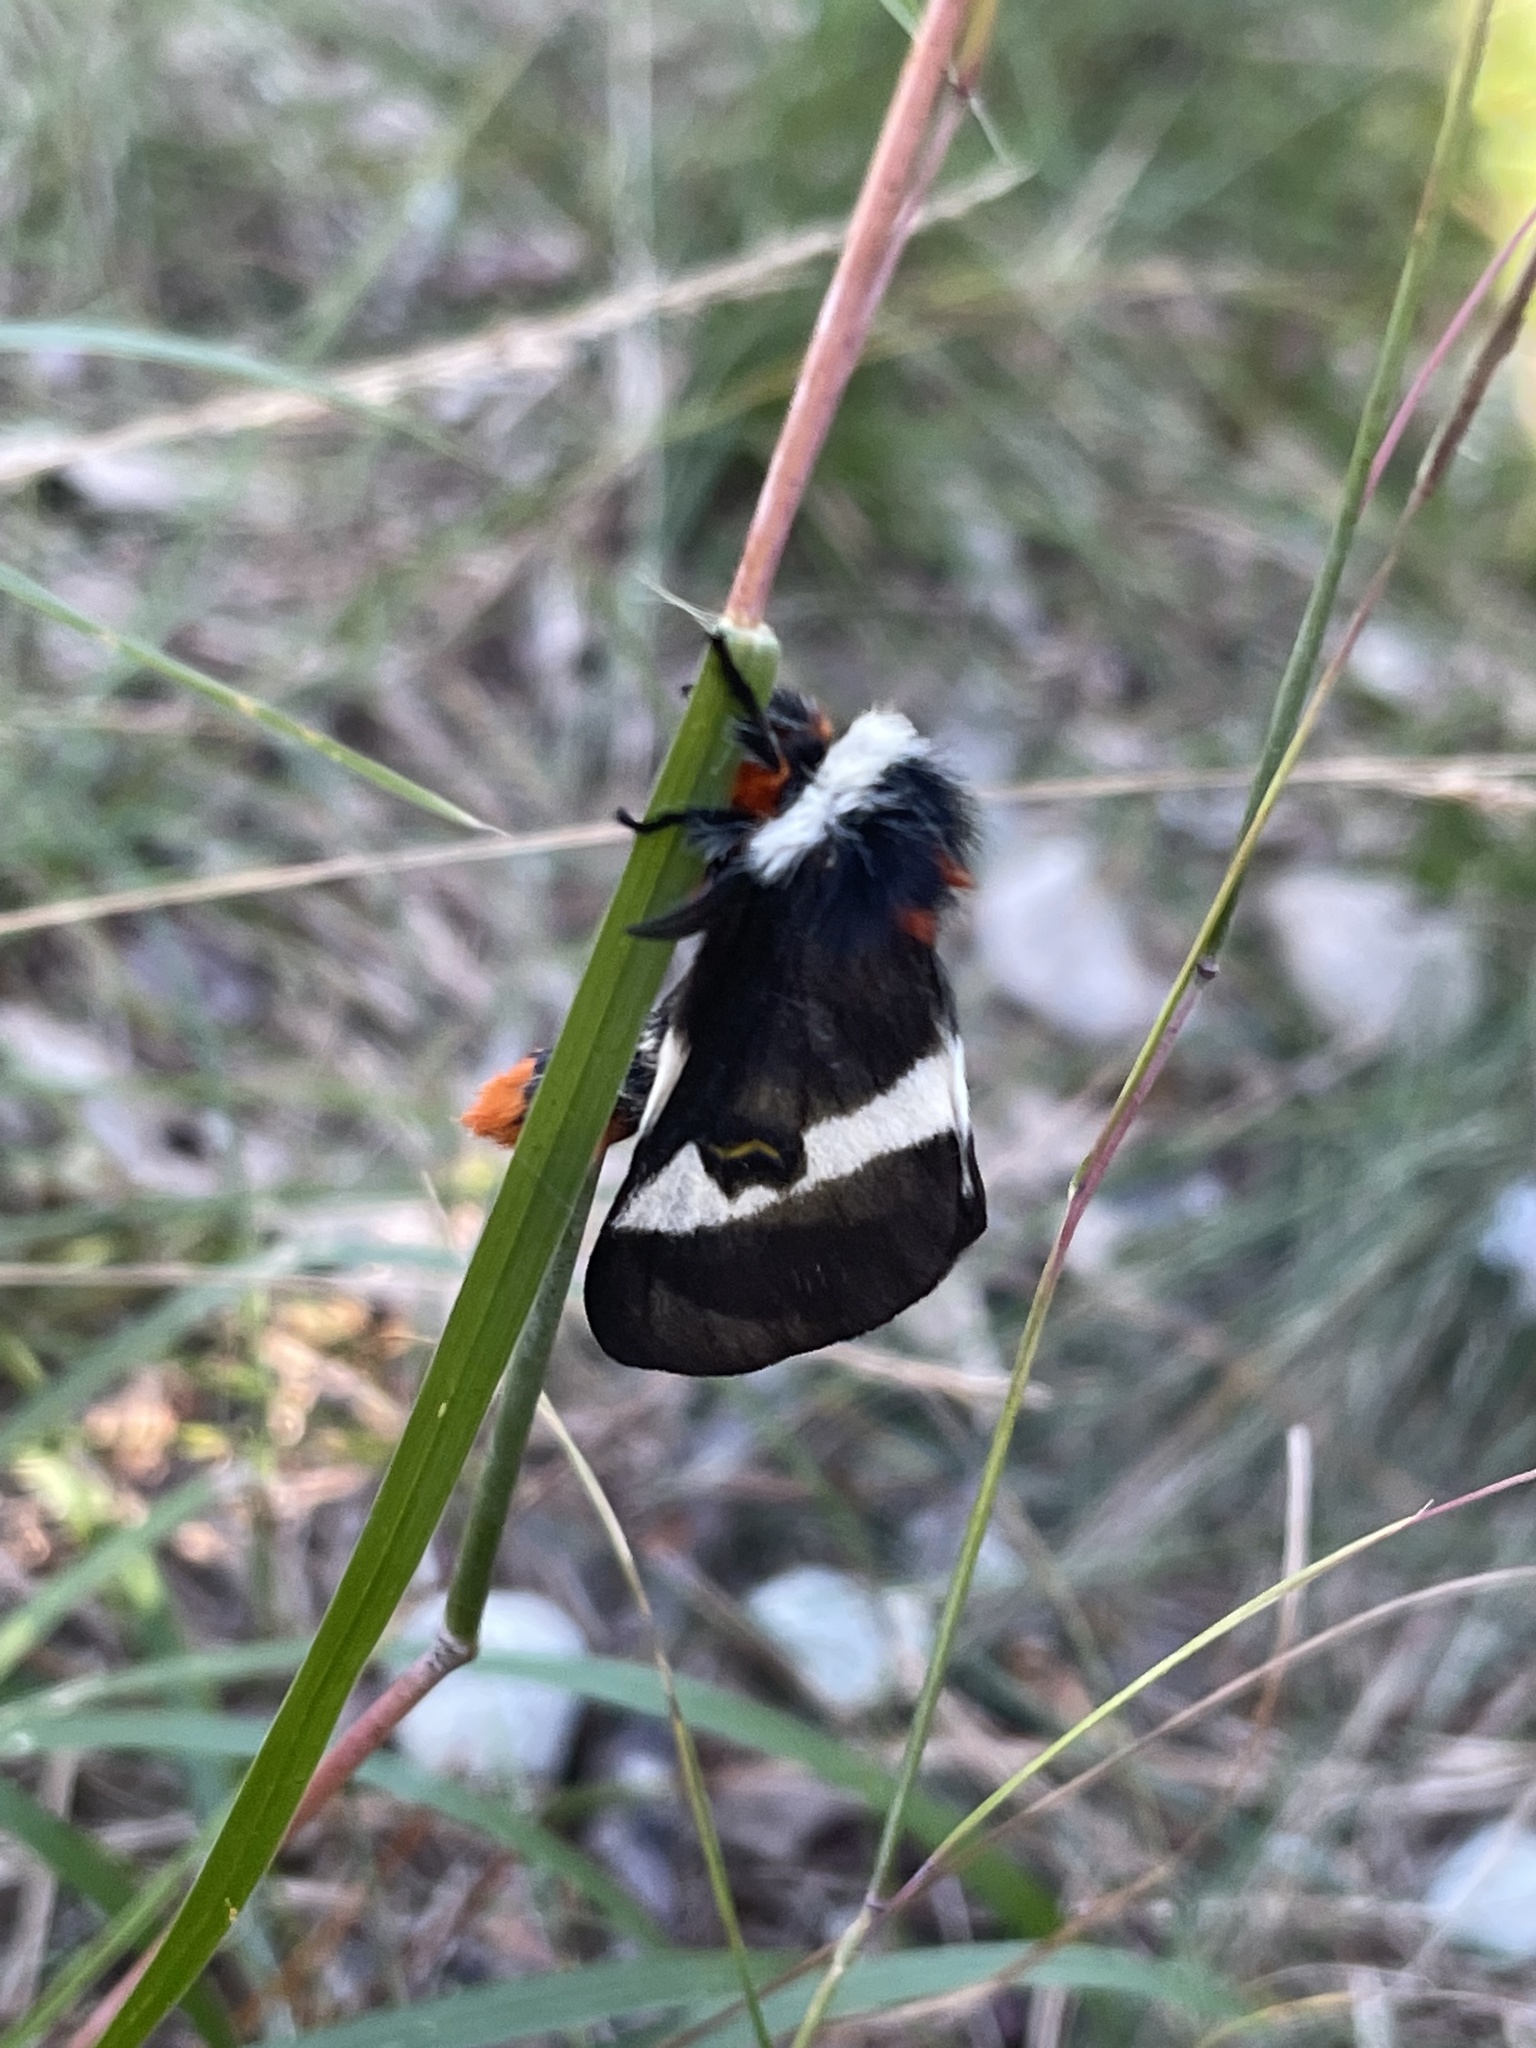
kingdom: Animalia
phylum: Arthropoda
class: Insecta
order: Lepidoptera
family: Saturniidae
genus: Hemileuca
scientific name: Hemileuca maia
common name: Eastern buckmoth
